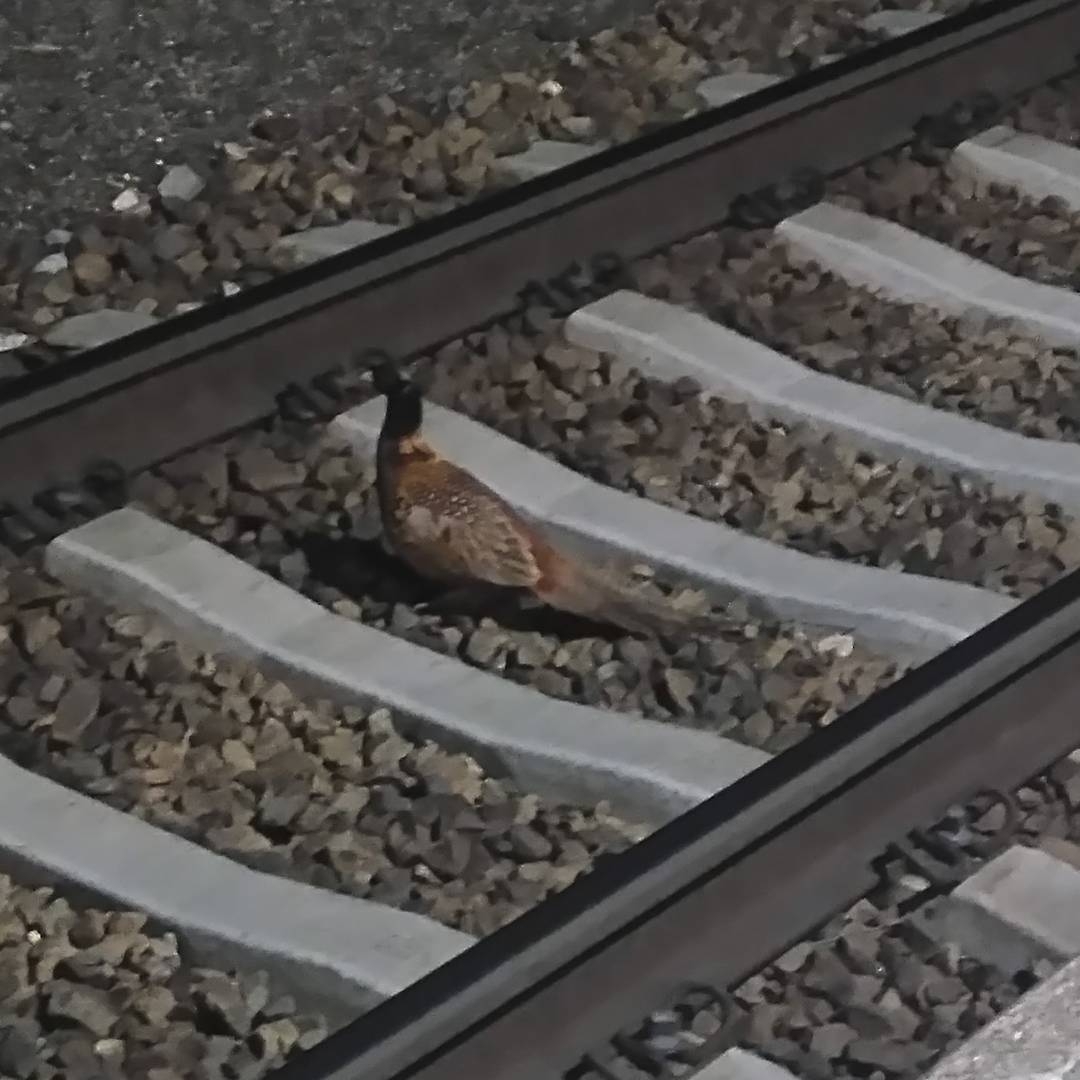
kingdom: Animalia
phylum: Chordata
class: Aves
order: Galliformes
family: Phasianidae
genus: Phasianus
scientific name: Phasianus colchicus
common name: Common pheasant
